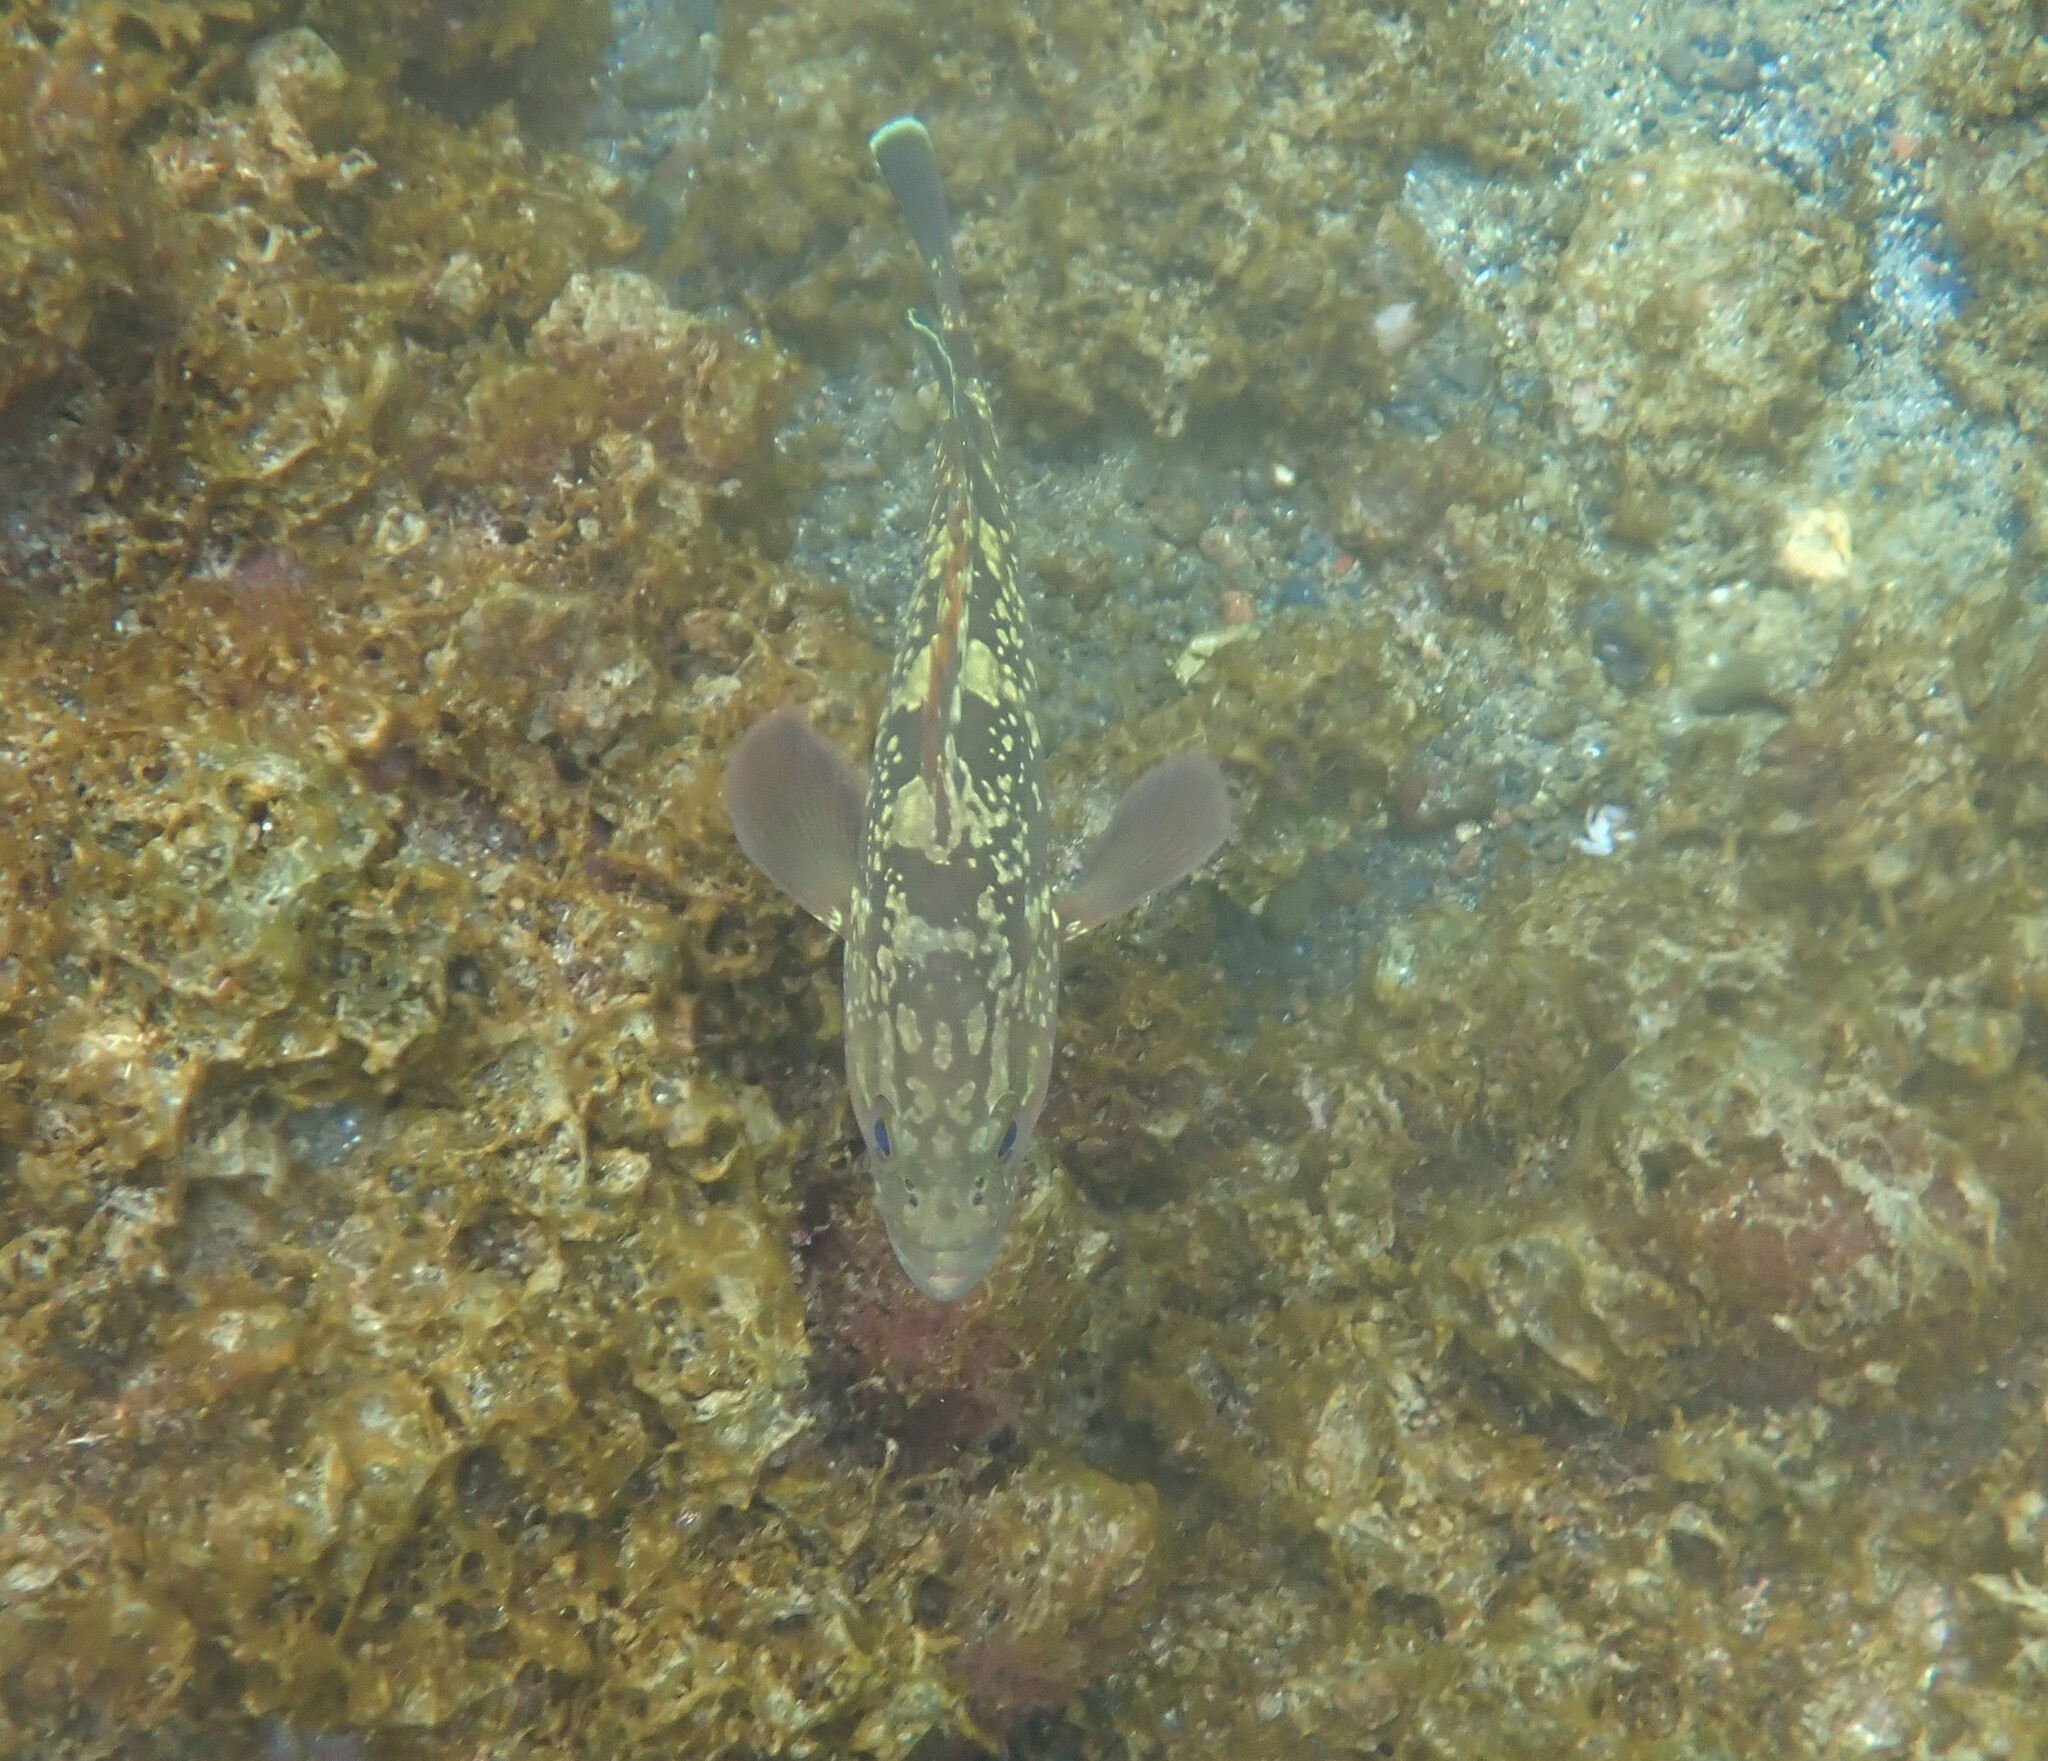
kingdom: Animalia
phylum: Chordata
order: Perciformes
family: Serranidae
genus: Epinephelus
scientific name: Epinephelus marginatus
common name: Dusky grouper
